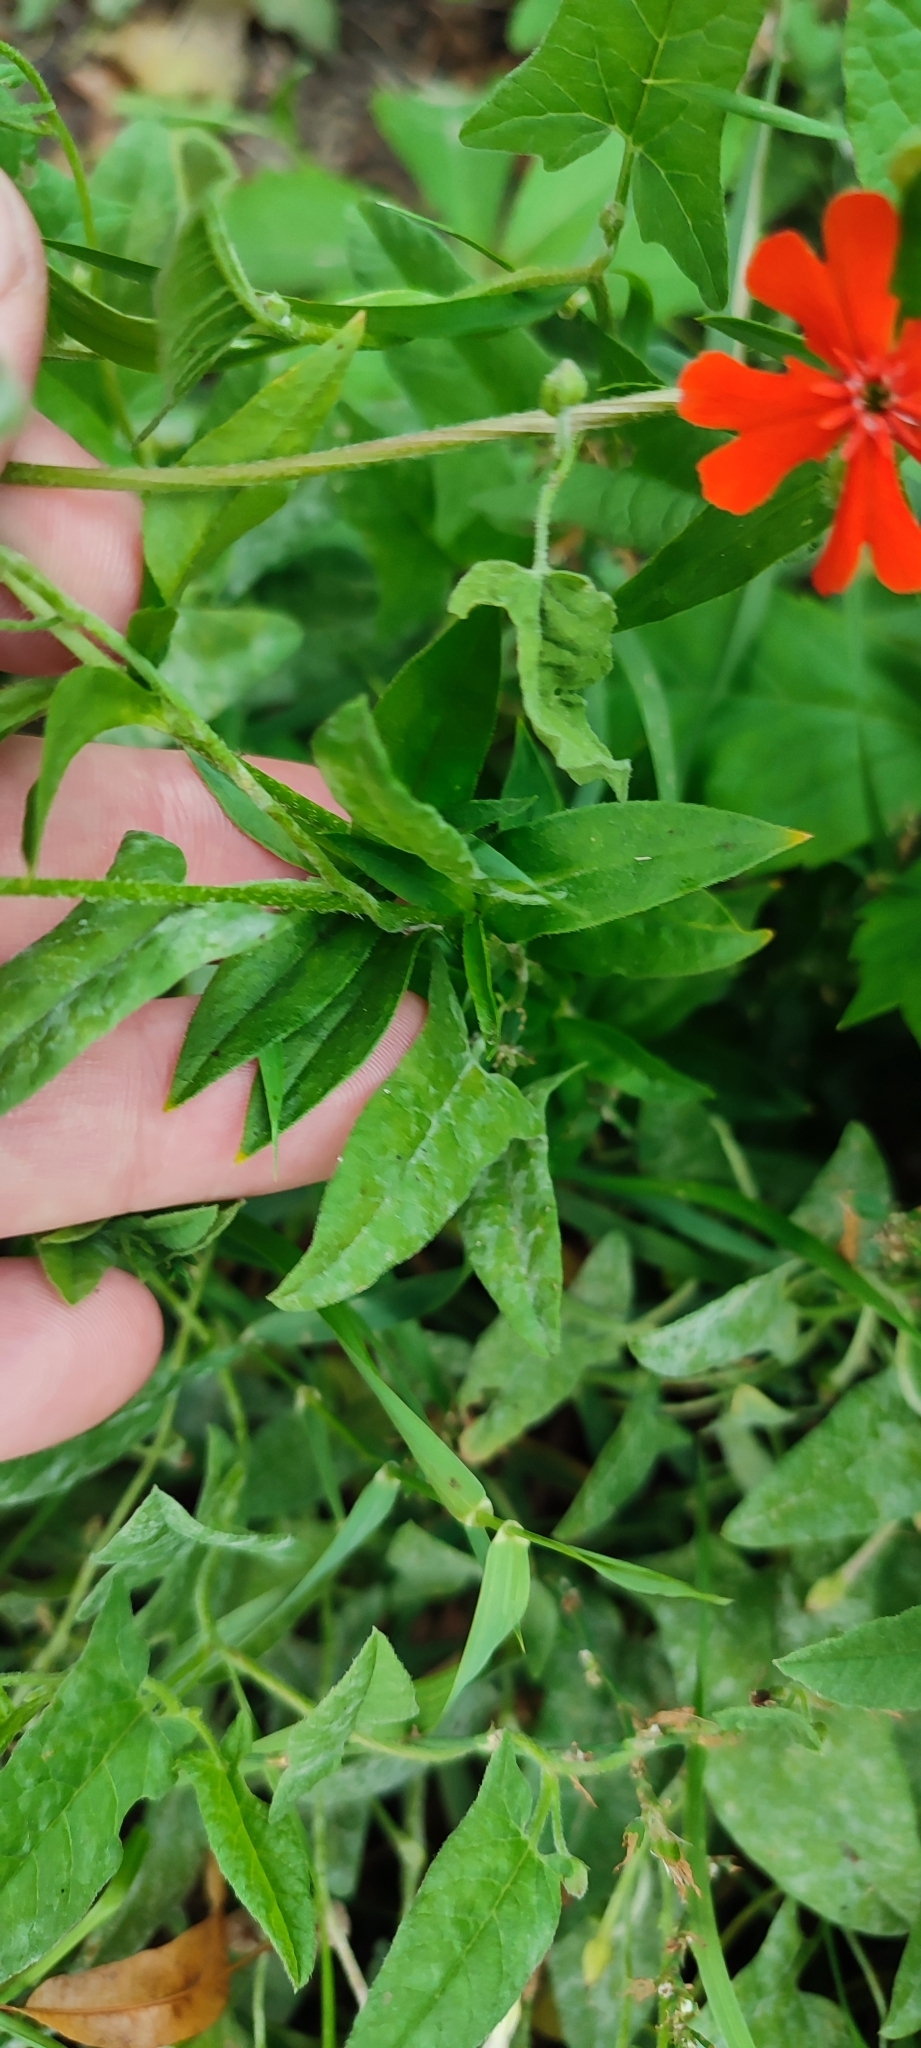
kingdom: Plantae
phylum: Tracheophyta
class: Magnoliopsida
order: Caryophyllales
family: Caryophyllaceae
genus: Silene
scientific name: Silene chalcedonica
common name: Maltese-cross
